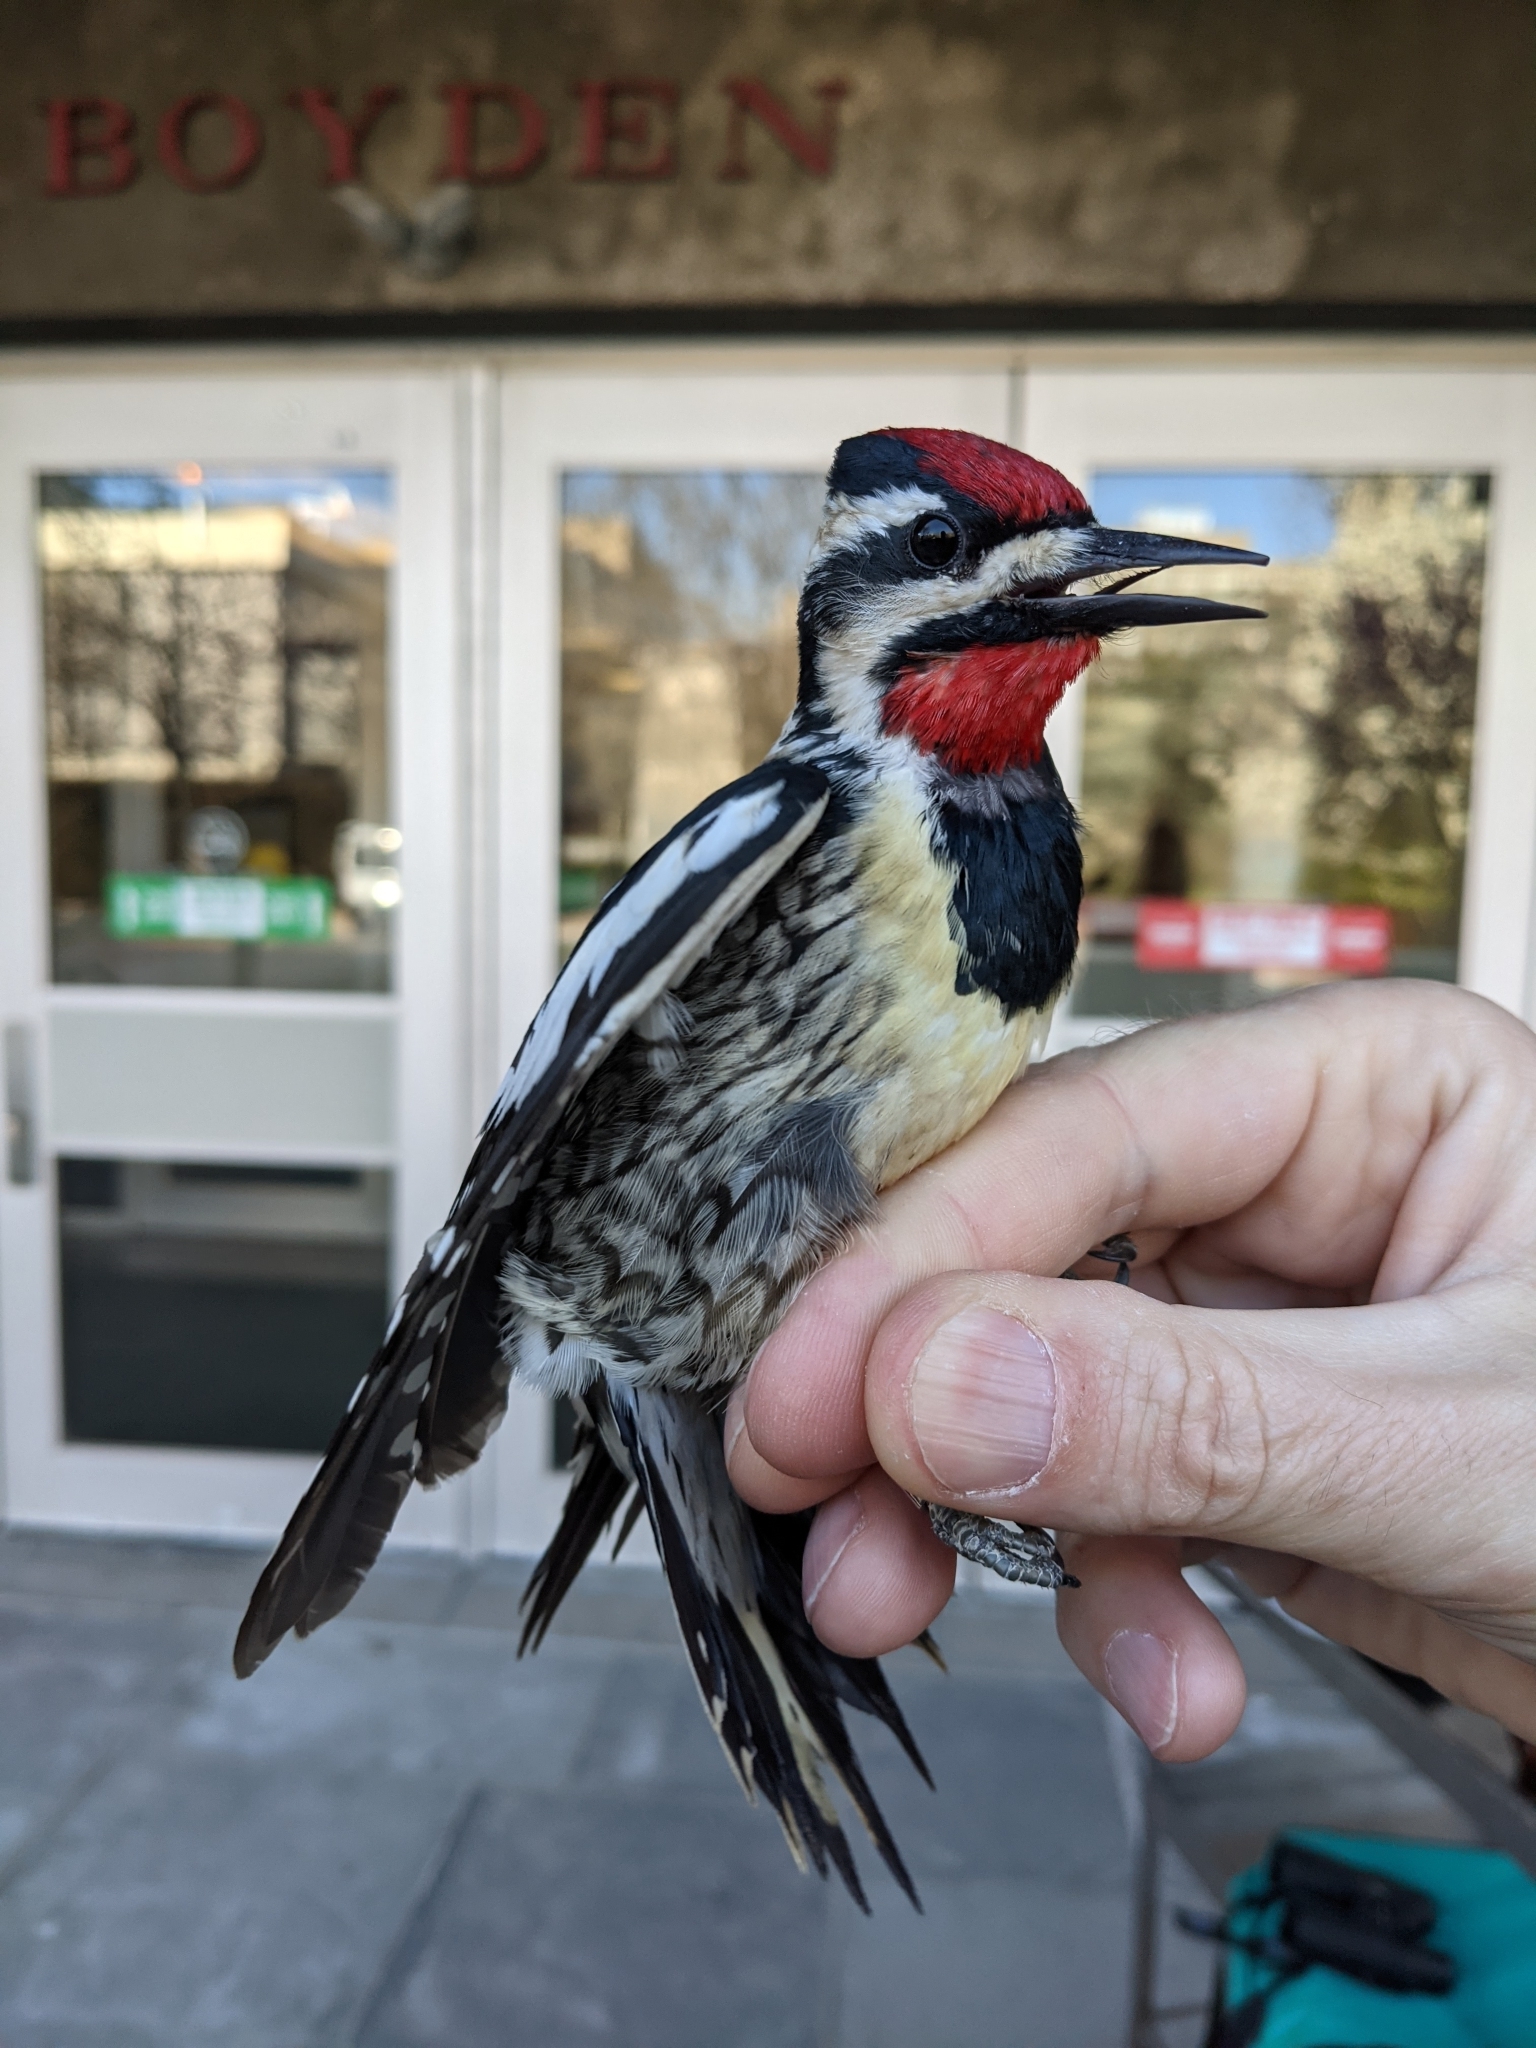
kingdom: Animalia
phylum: Chordata
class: Aves
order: Piciformes
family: Picidae
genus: Sphyrapicus
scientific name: Sphyrapicus varius
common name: Yellow-bellied sapsucker
